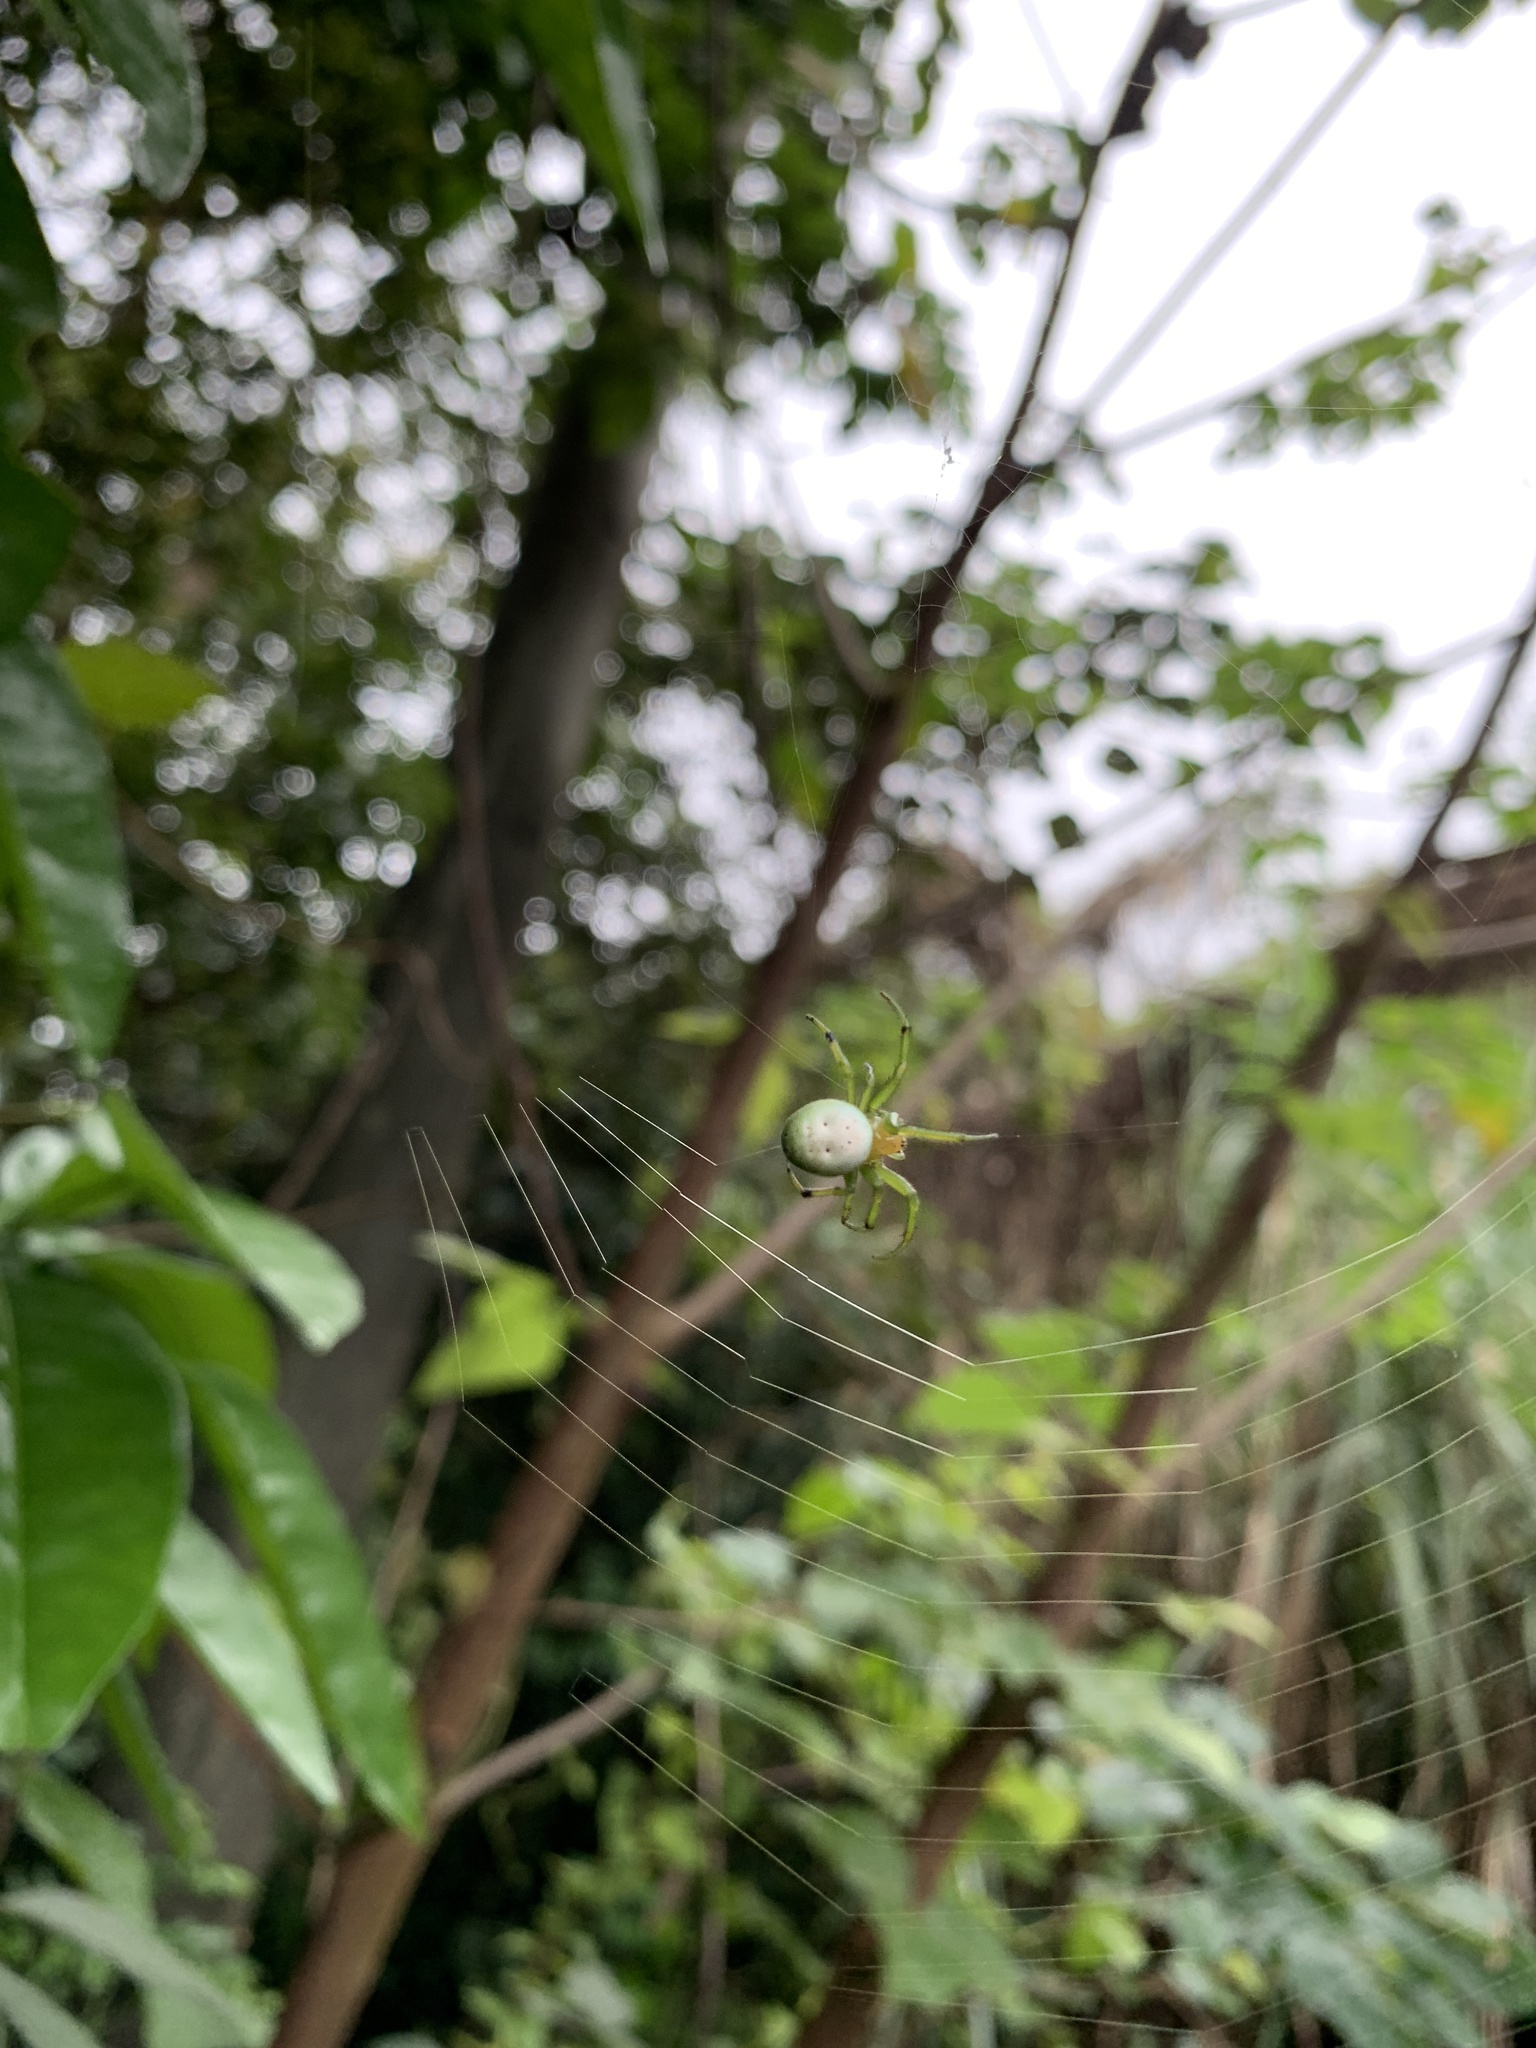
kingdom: Animalia
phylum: Arthropoda
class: Arachnida
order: Araneae
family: Araneidae
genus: Aoaraneus
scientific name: Aoaraneus pentagrammicus
